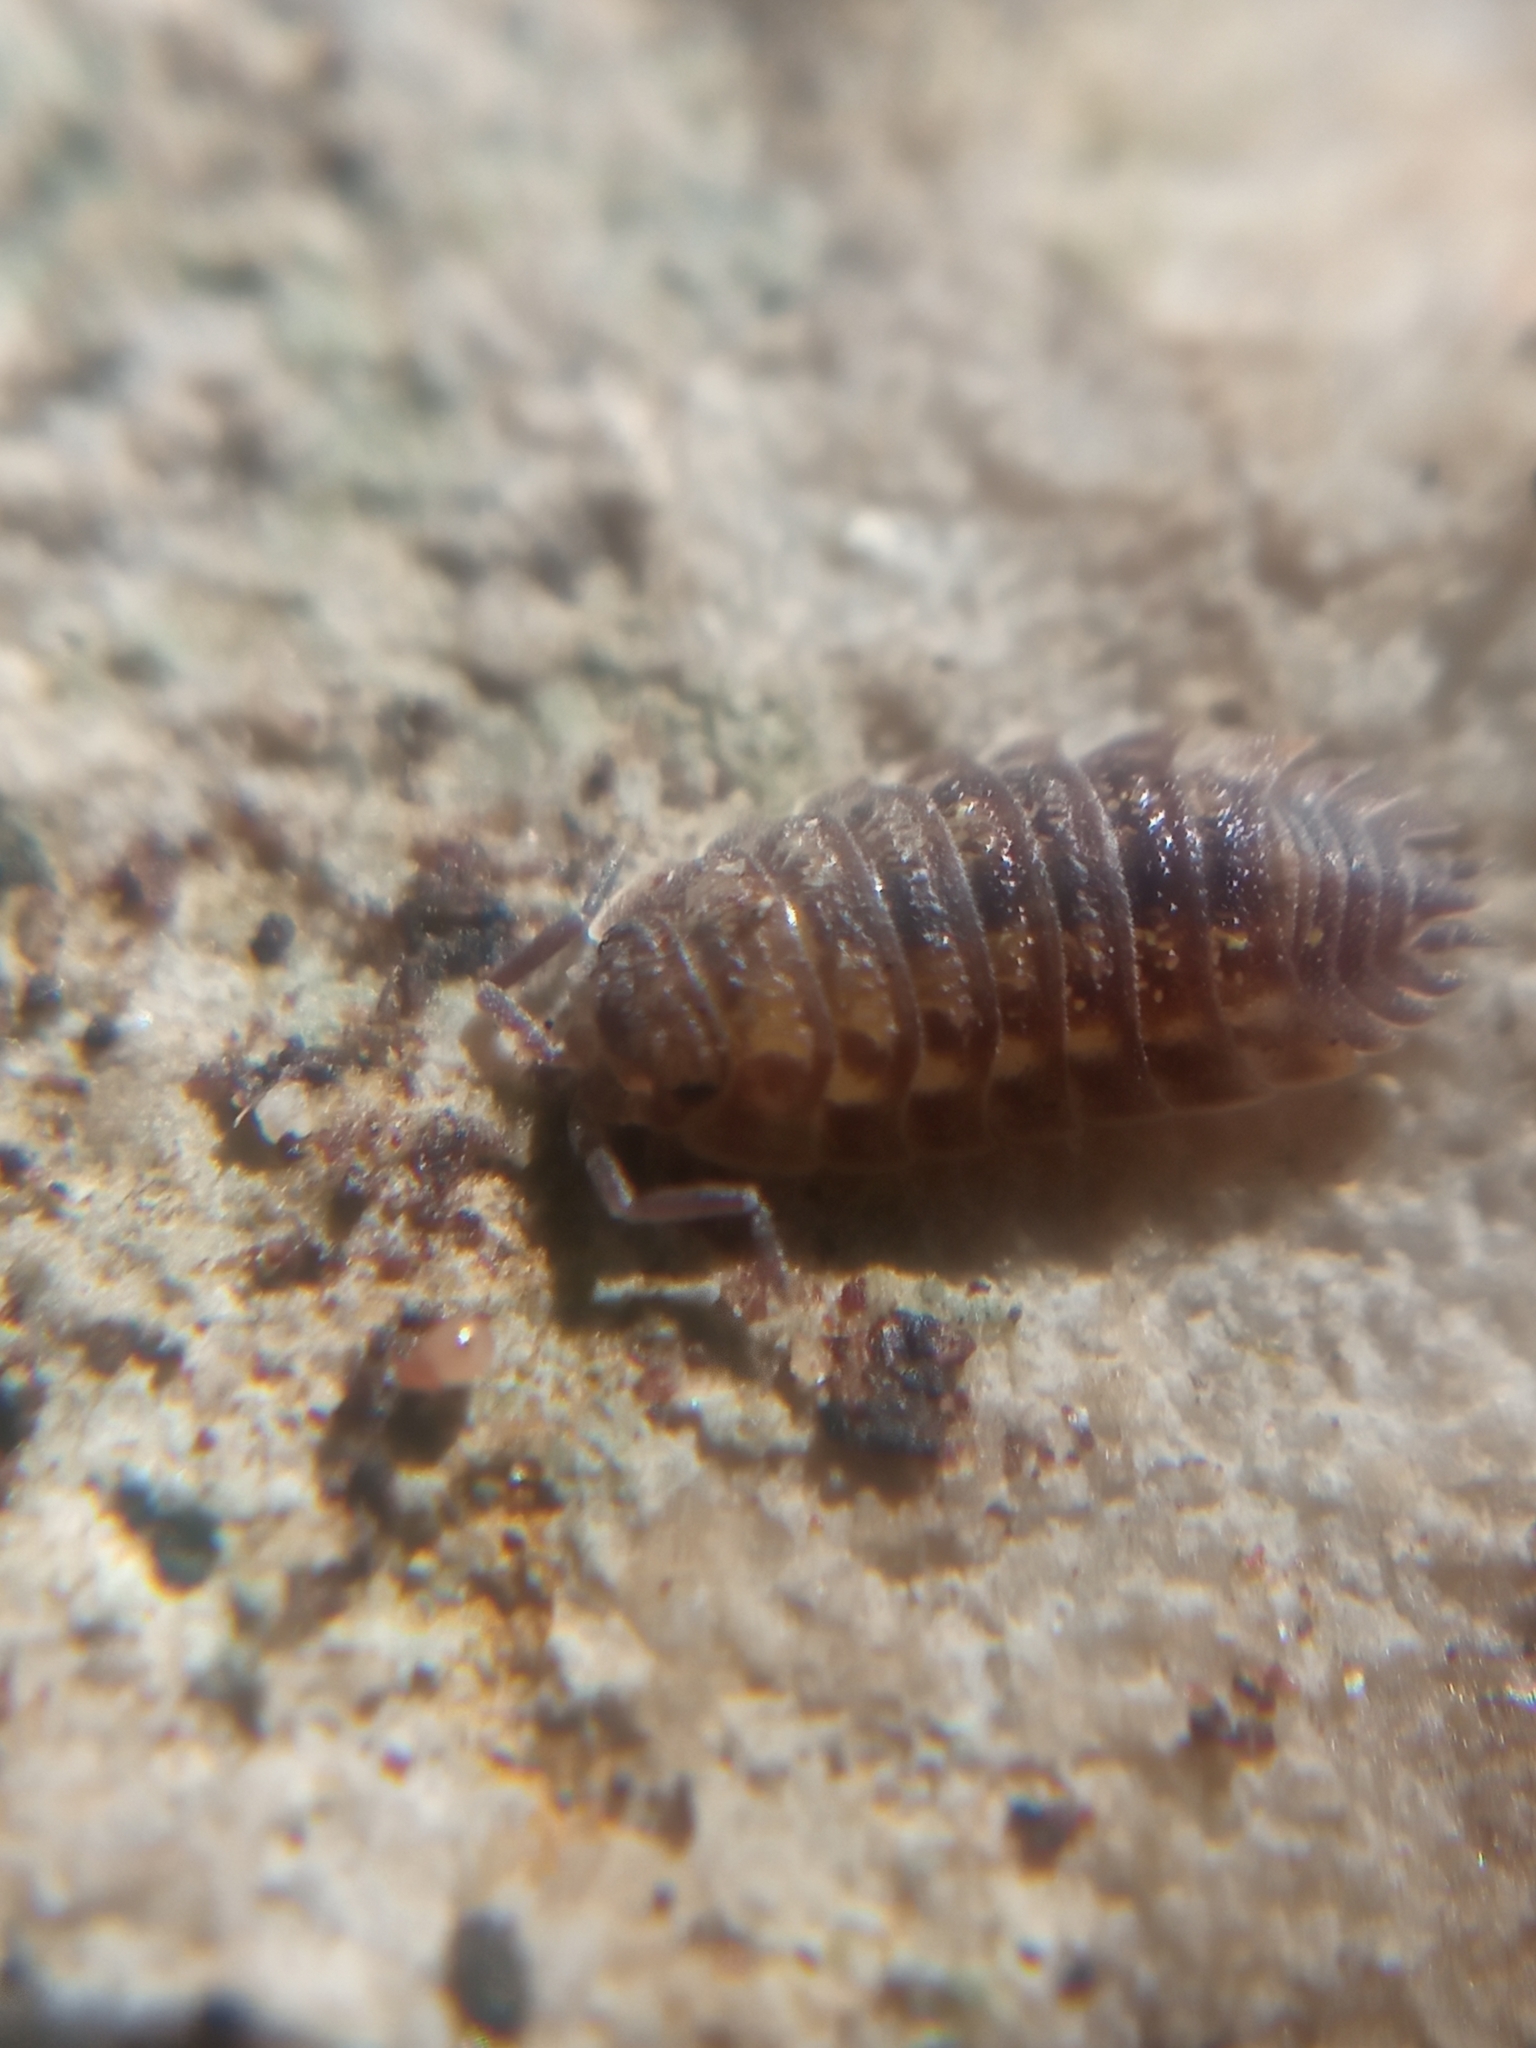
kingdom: Animalia
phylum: Arthropoda
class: Malacostraca
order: Isopoda
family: Oniscidae
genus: Oniscus
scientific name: Oniscus asellus
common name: Common shiny woodlouse
